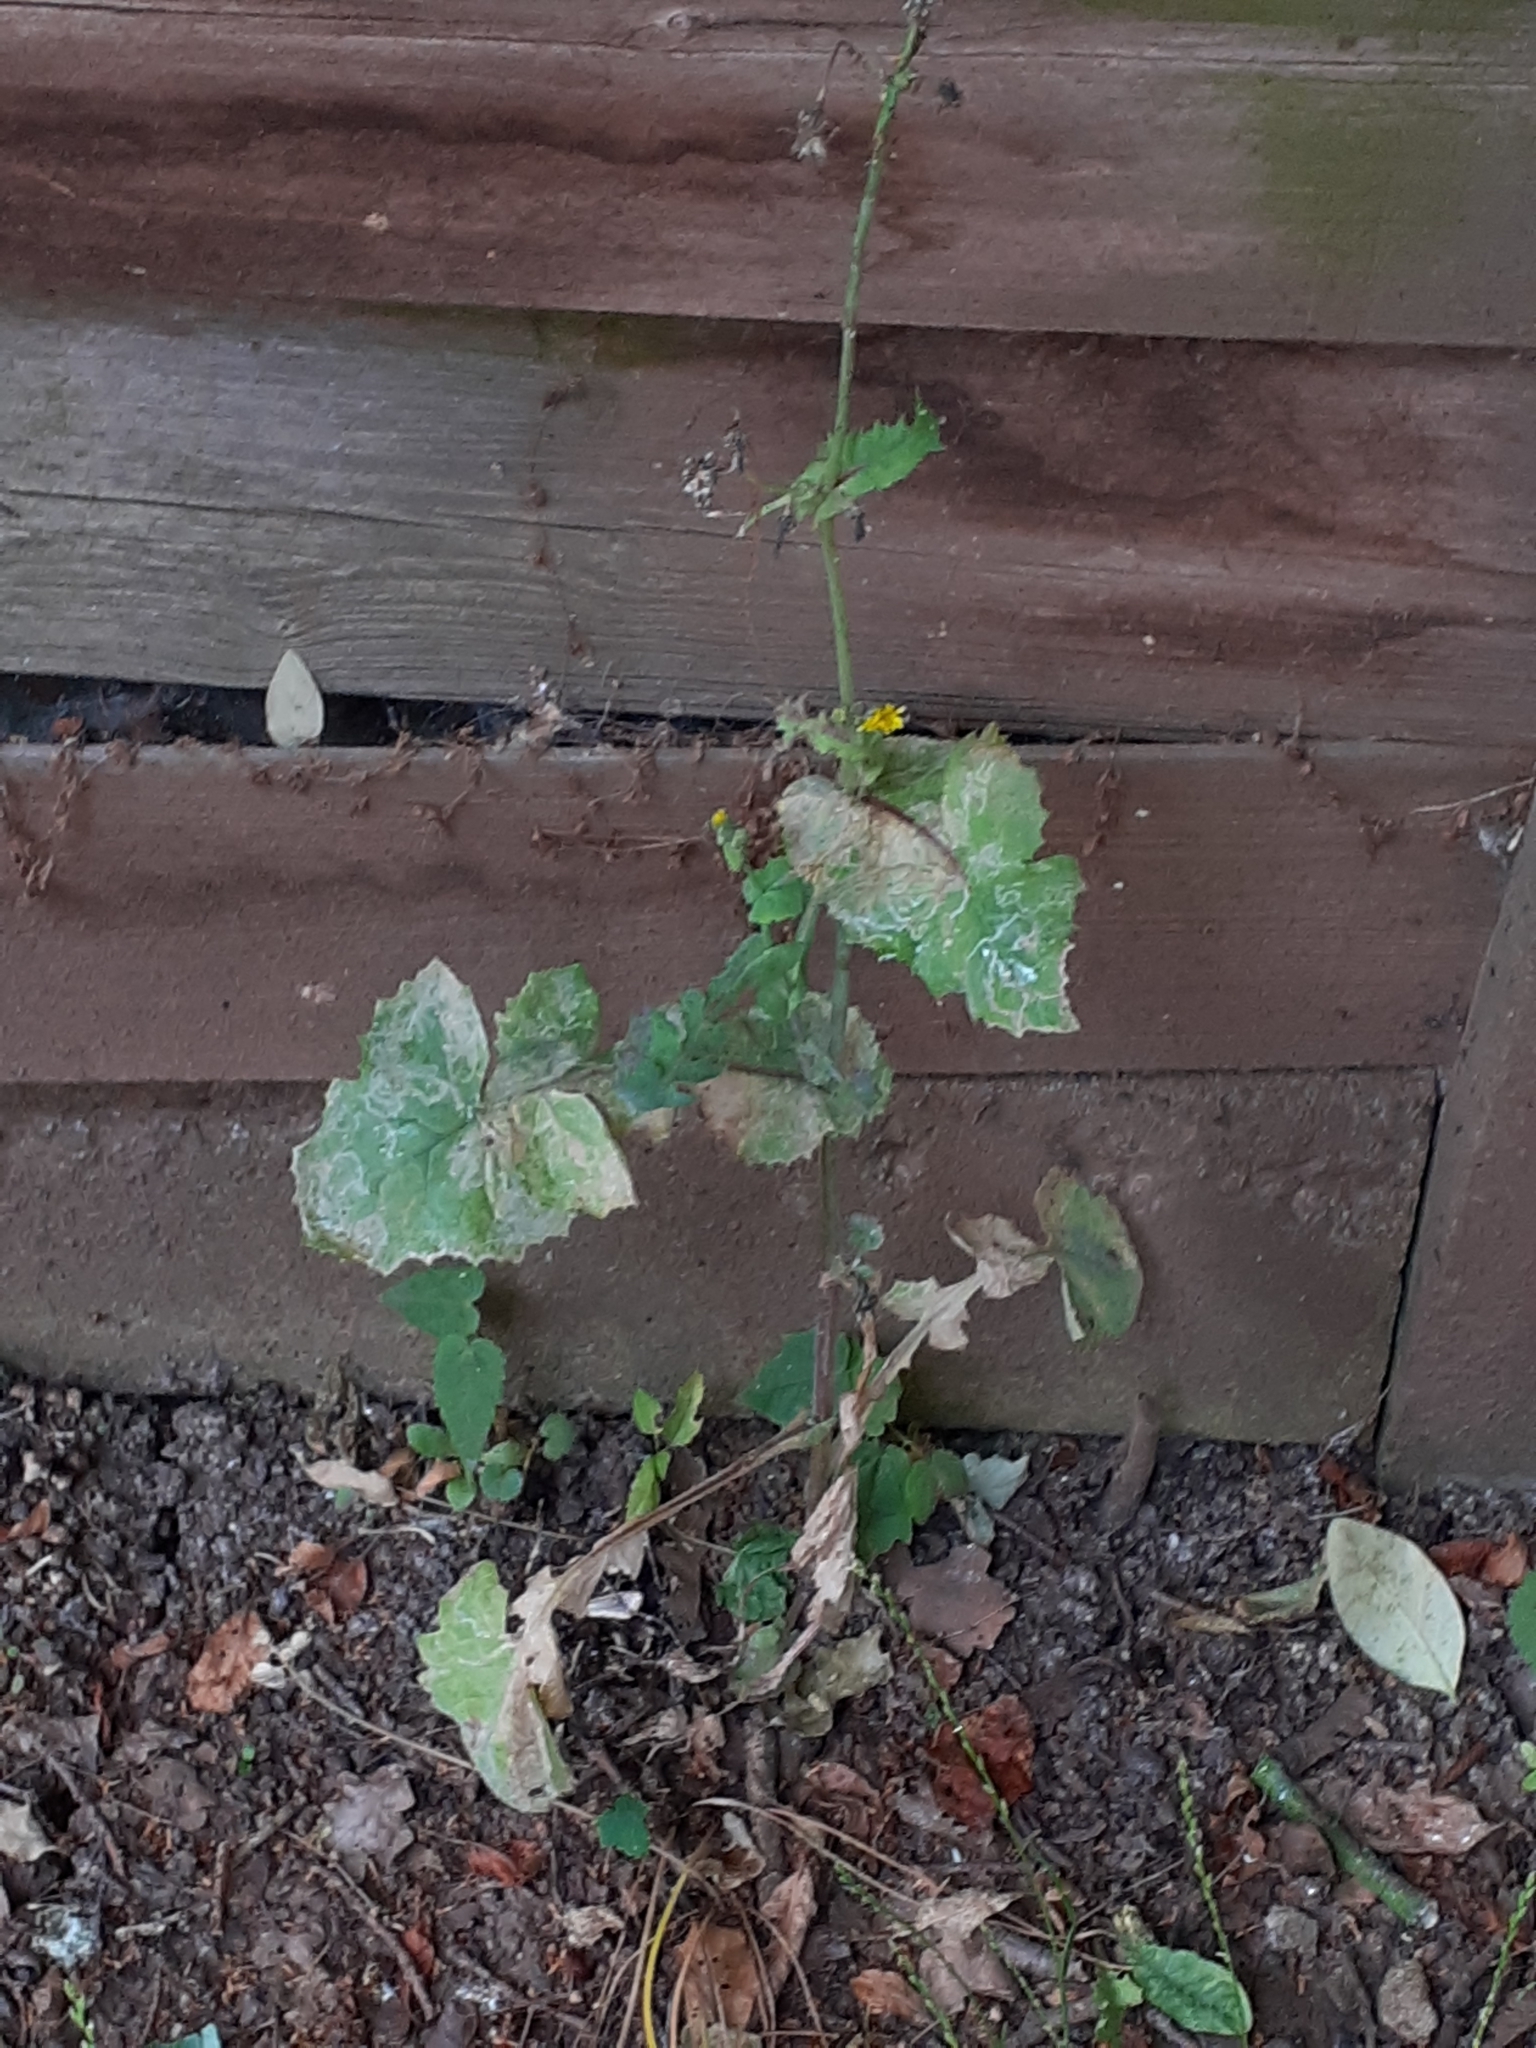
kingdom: Plantae
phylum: Tracheophyta
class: Magnoliopsida
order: Asterales
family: Asteraceae
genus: Sonchus
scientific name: Sonchus oleraceus
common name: Common sowthistle
